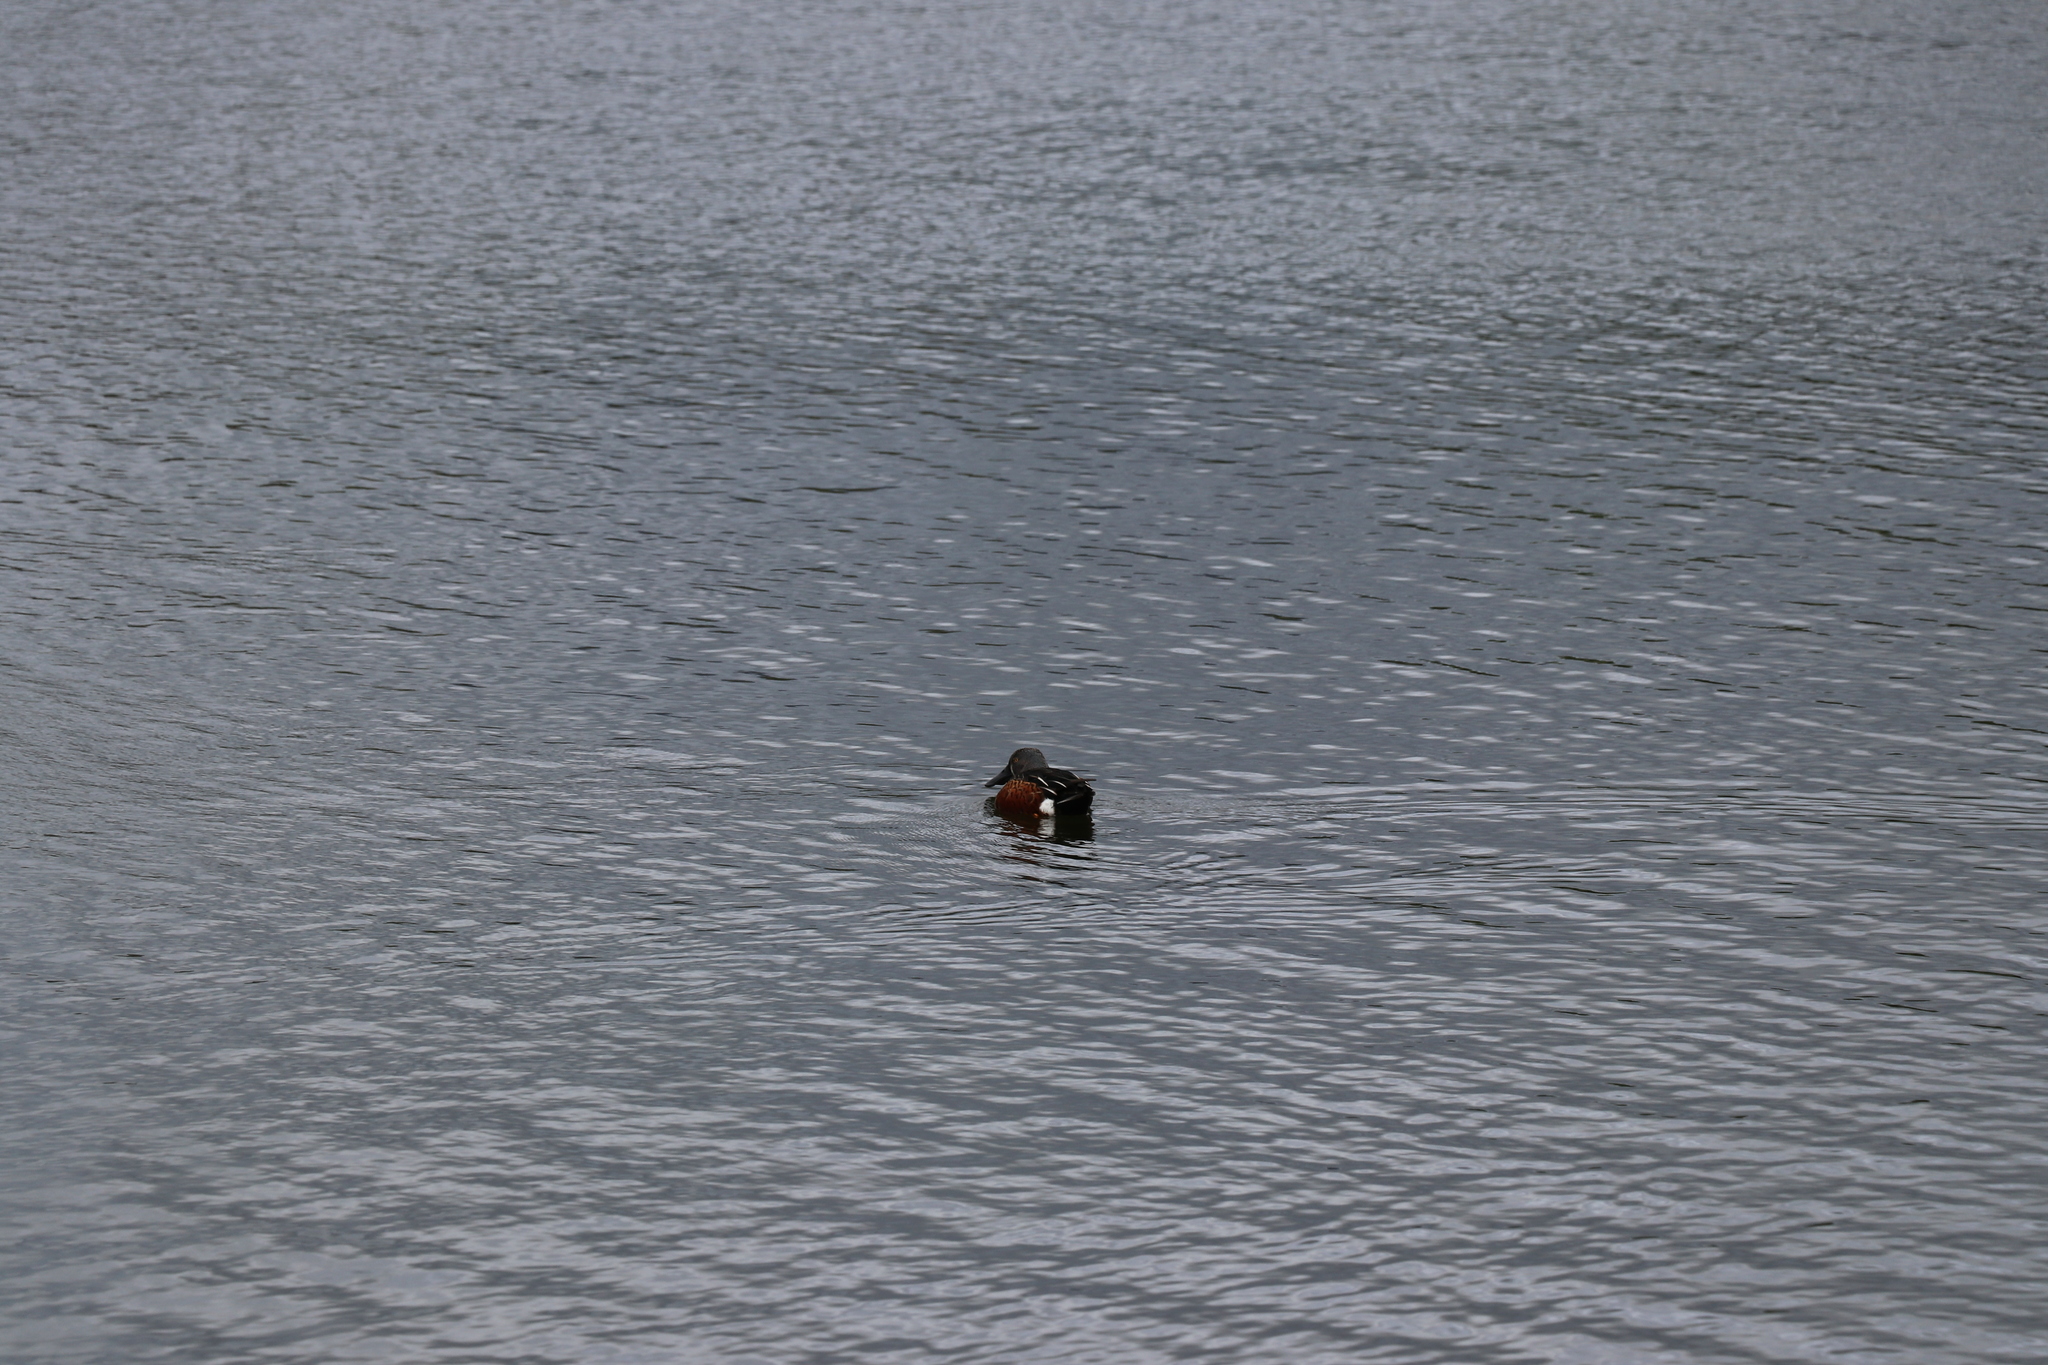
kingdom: Animalia
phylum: Chordata
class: Aves
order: Anseriformes
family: Anatidae
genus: Spatula
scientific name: Spatula rhynchotis
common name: Australian shoveler
